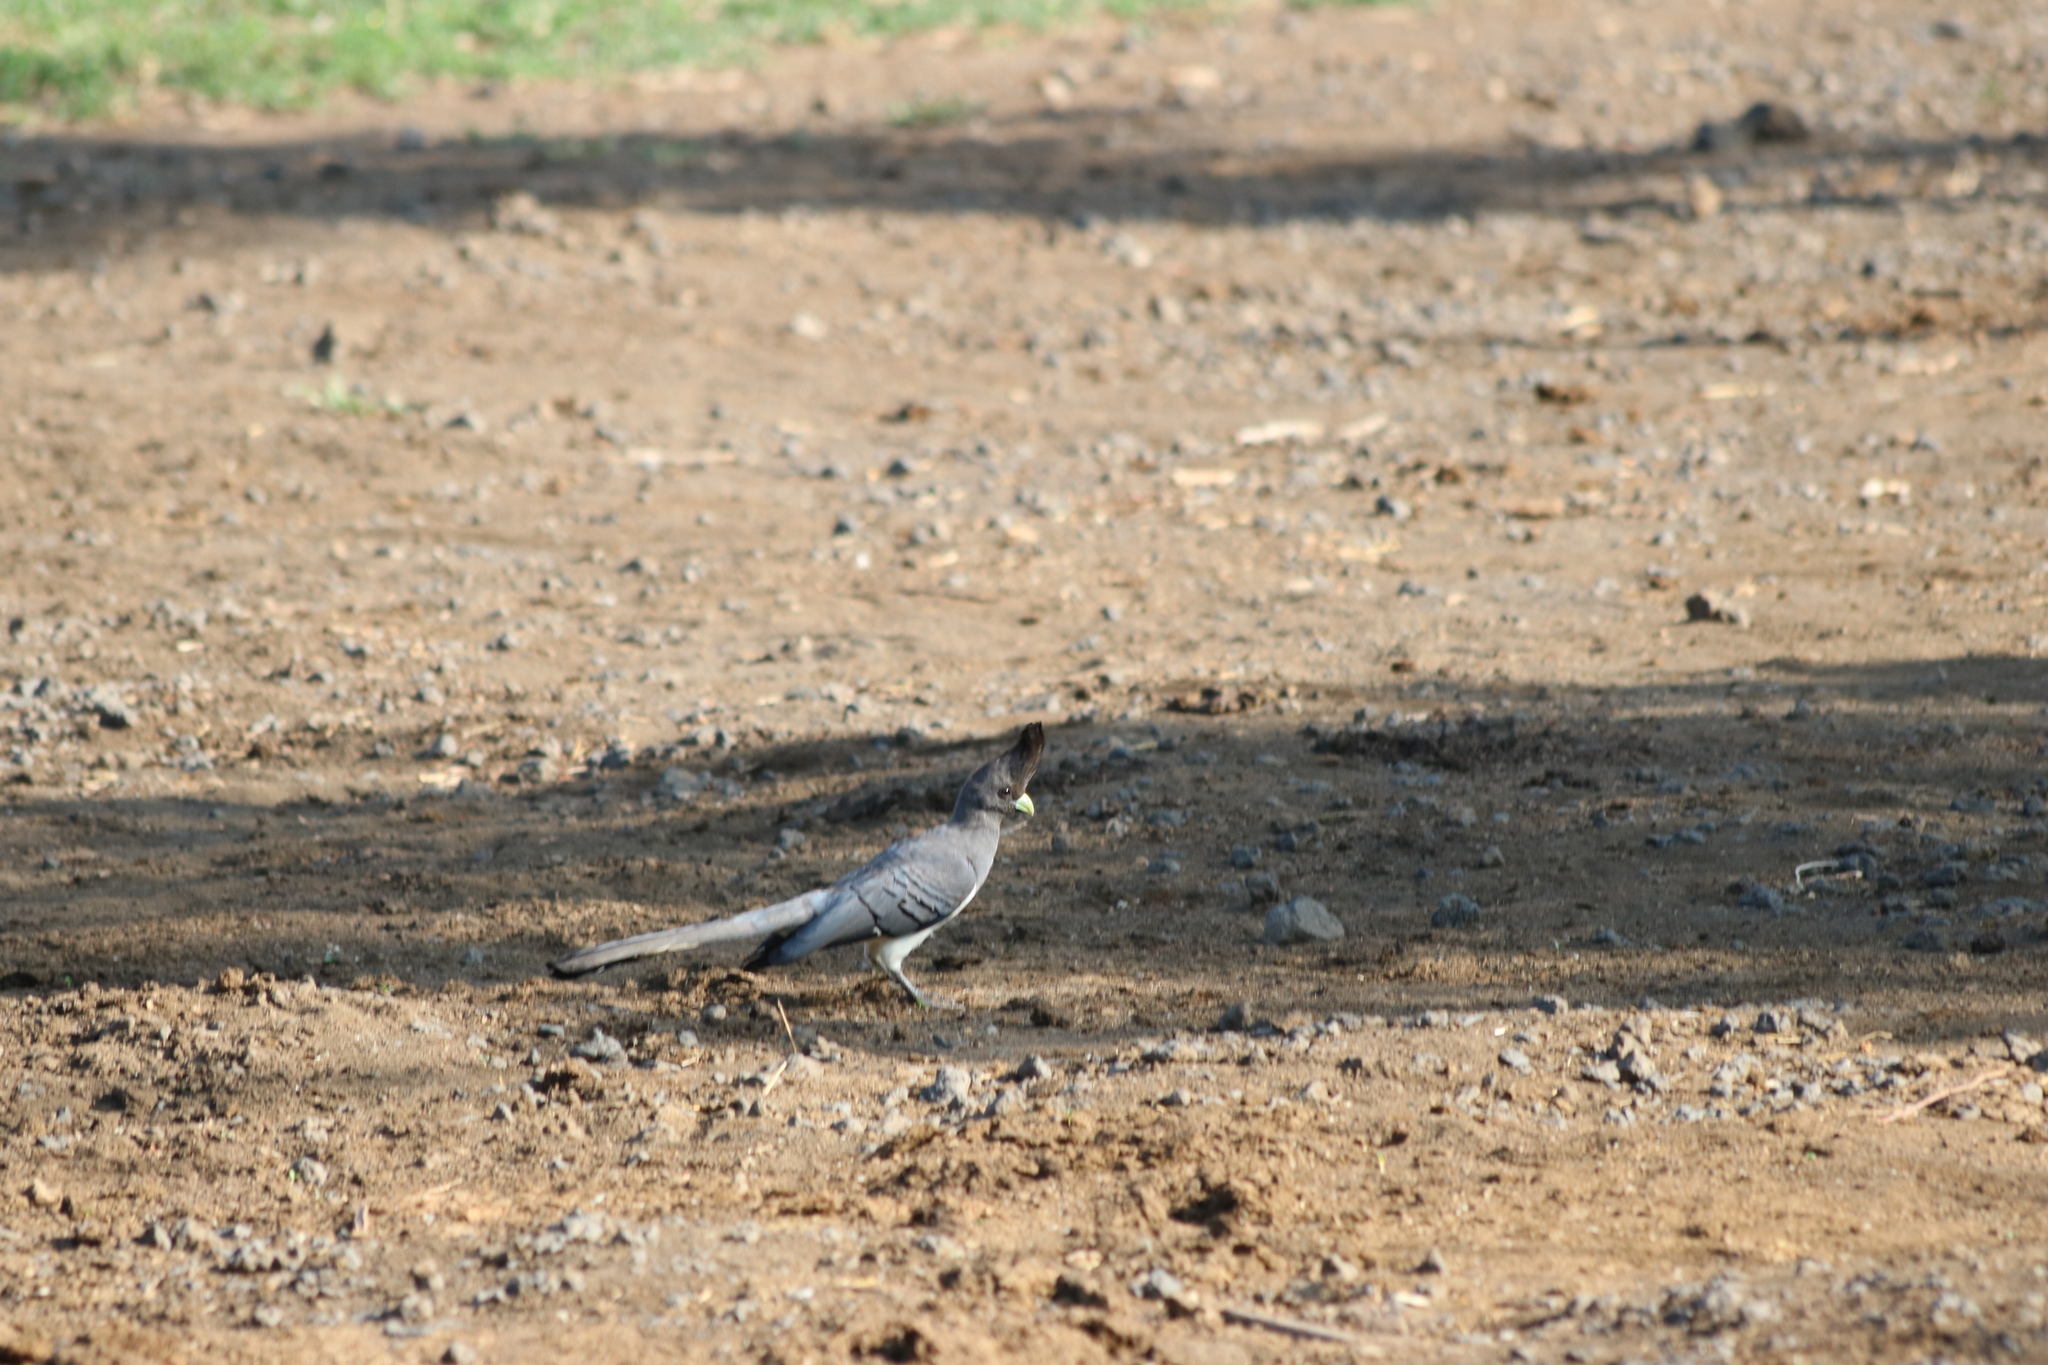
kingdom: Animalia
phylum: Chordata
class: Aves
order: Musophagiformes
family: Musophagidae
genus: Corythaixoides
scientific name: Corythaixoides leucogaster
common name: White-bellied go-away-bird
